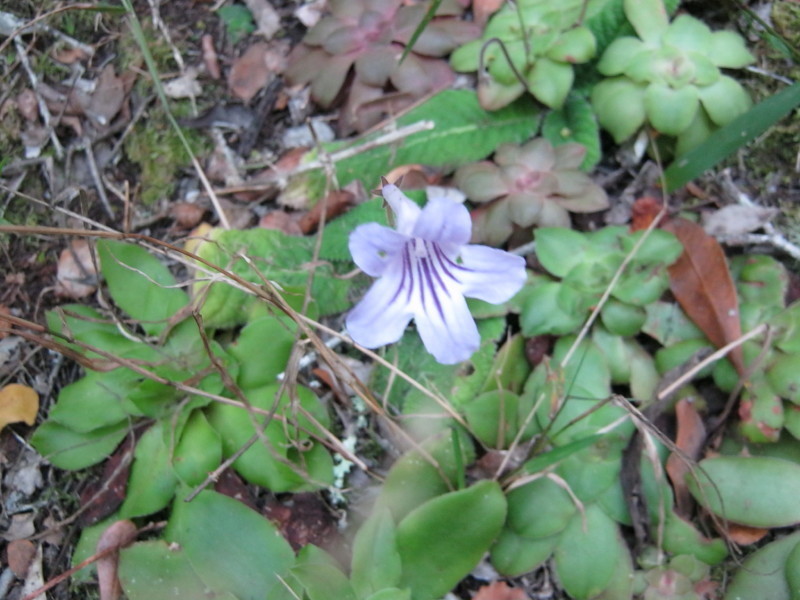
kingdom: Plantae
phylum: Tracheophyta
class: Magnoliopsida
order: Lamiales
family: Gesneriaceae
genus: Streptocarpus
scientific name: Streptocarpus rexii
